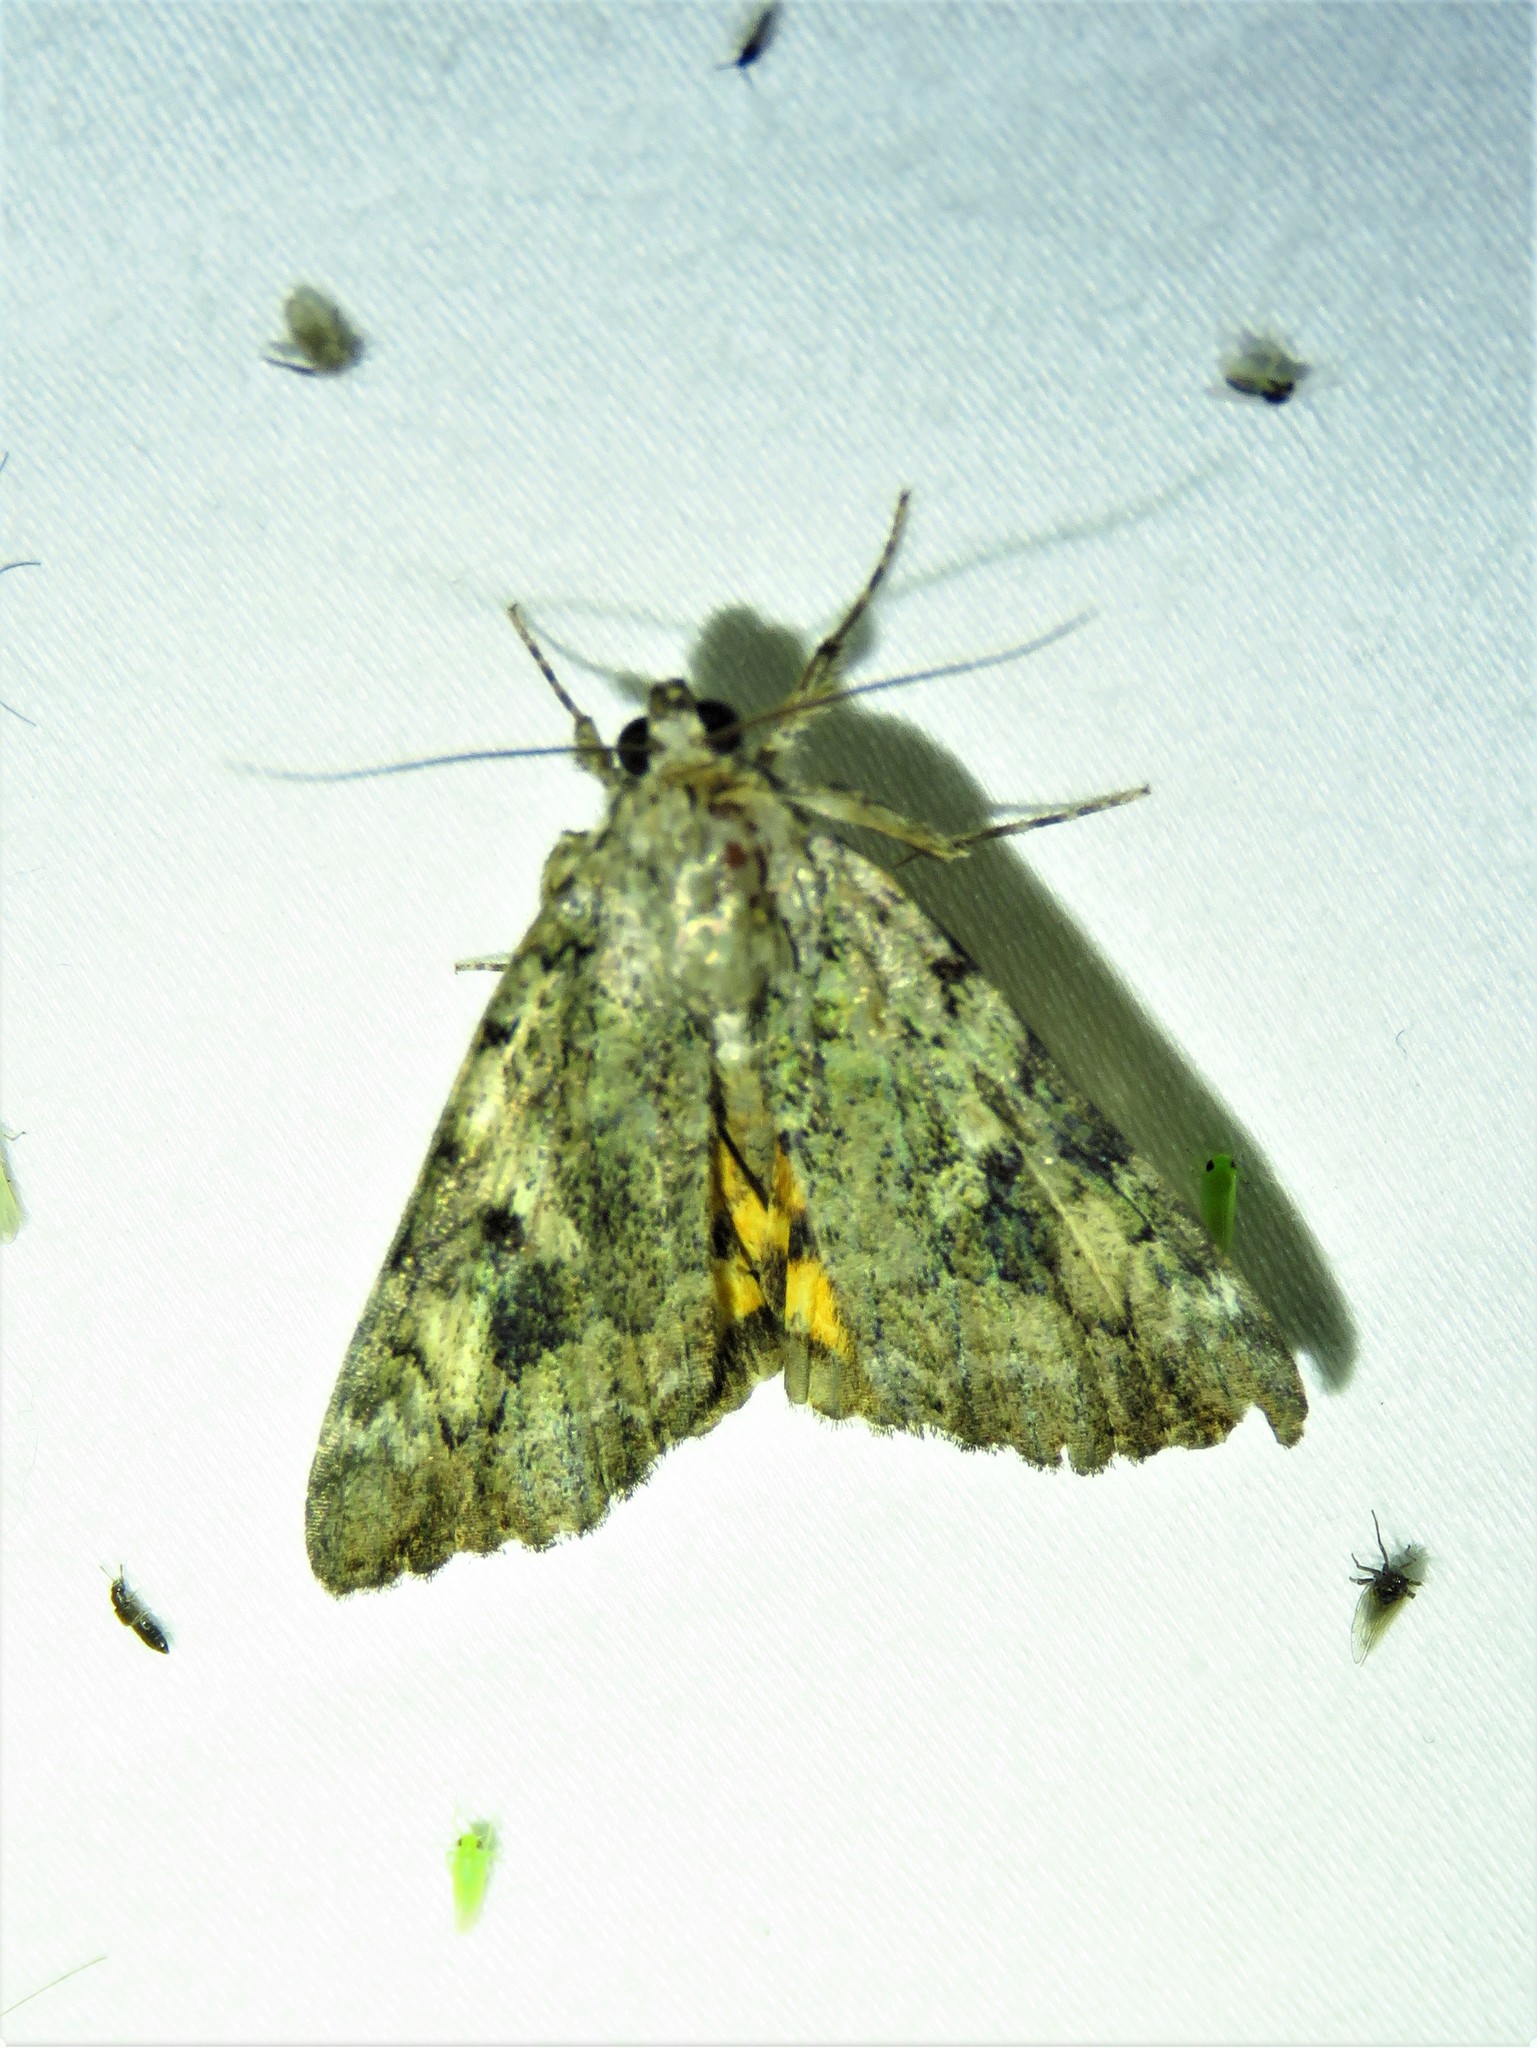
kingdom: Animalia
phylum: Arthropoda
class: Insecta
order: Lepidoptera
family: Erebidae
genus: Catocala
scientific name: Catocala micronympha
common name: Little nymph underwing
